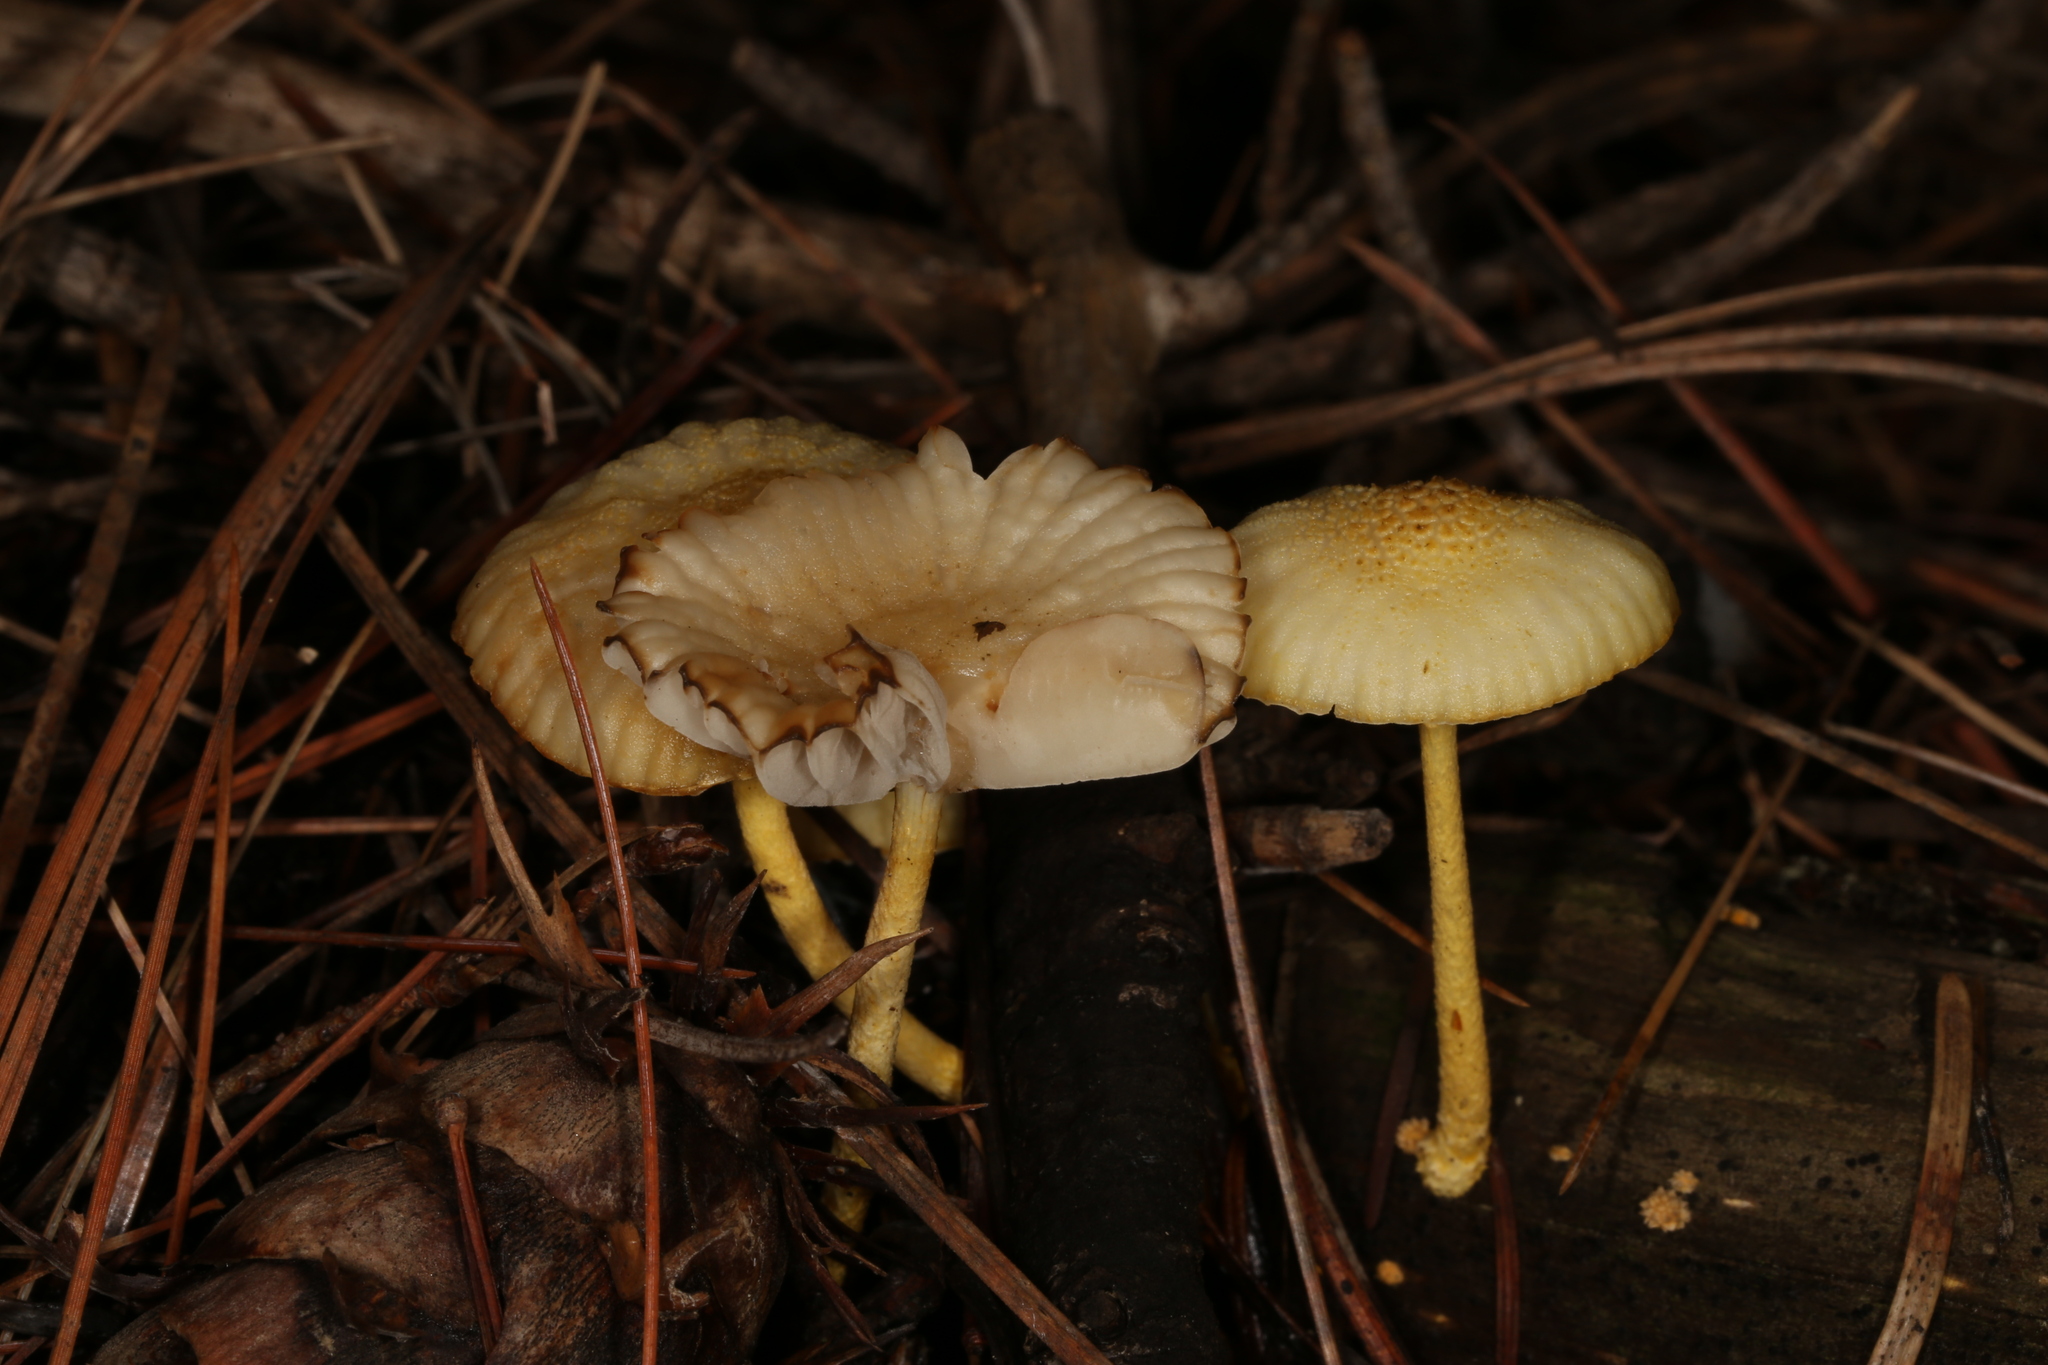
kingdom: Fungi
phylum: Basidiomycota
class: Agaricomycetes
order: Agaricales
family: Physalacriaceae
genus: Cyptotrama
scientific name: Cyptotrama chrysopepla
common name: Golden coincap
